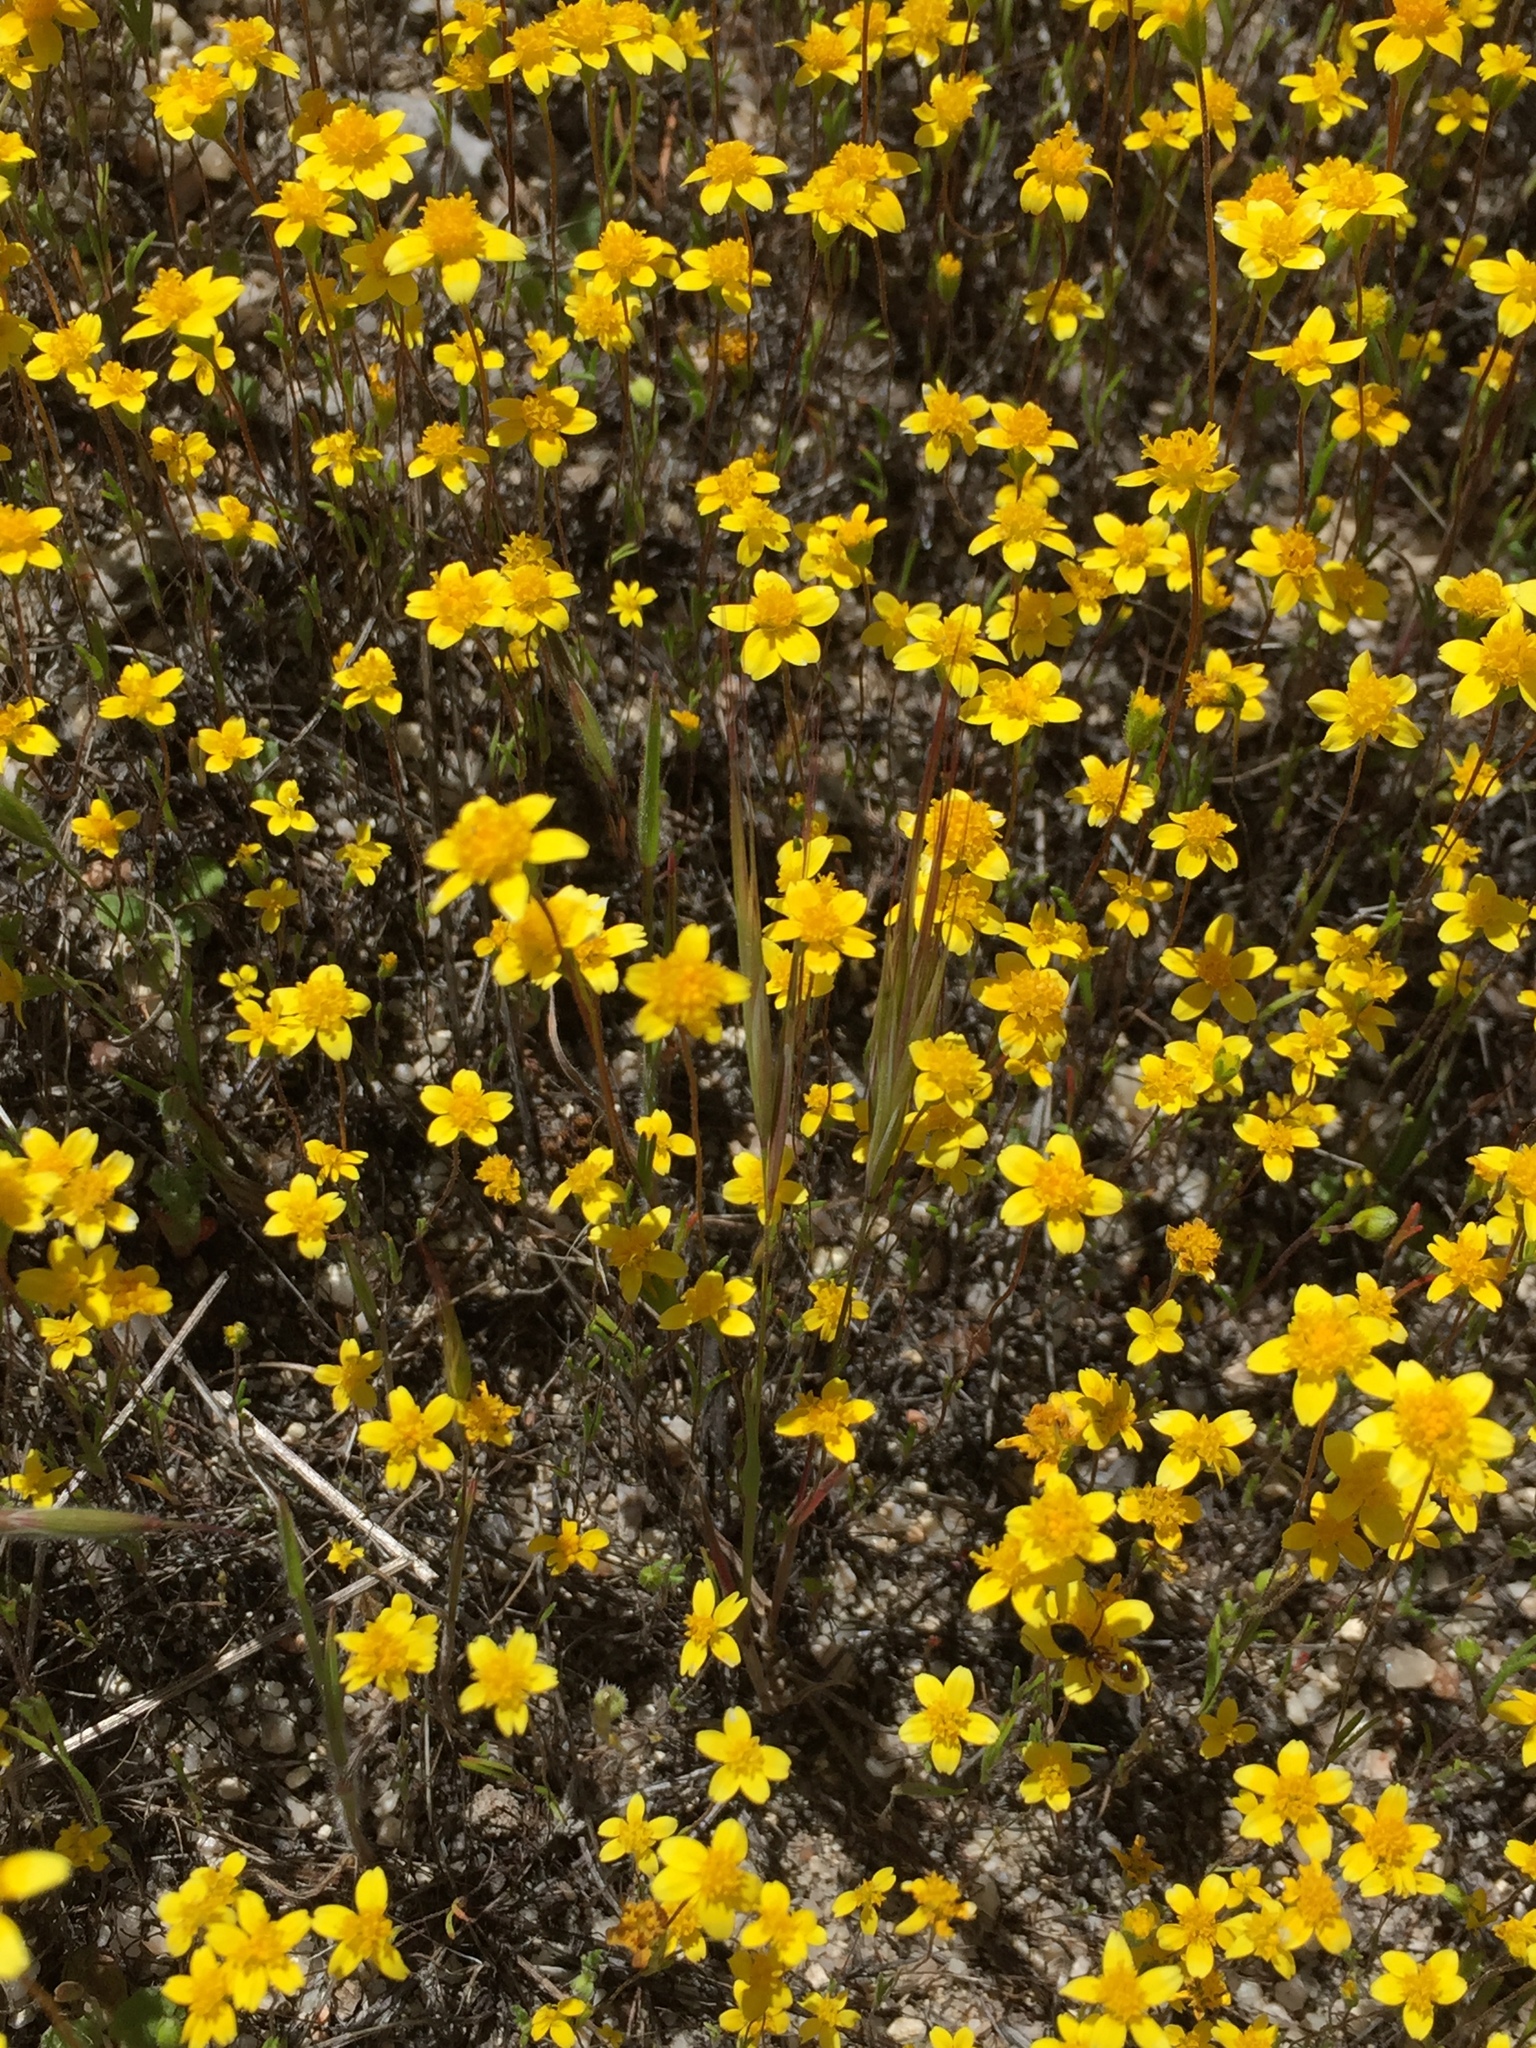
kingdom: Plantae
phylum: Tracheophyta
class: Magnoliopsida
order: Asterales
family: Asteraceae
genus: Lasthenia
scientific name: Lasthenia gracilis
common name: Common goldfields
